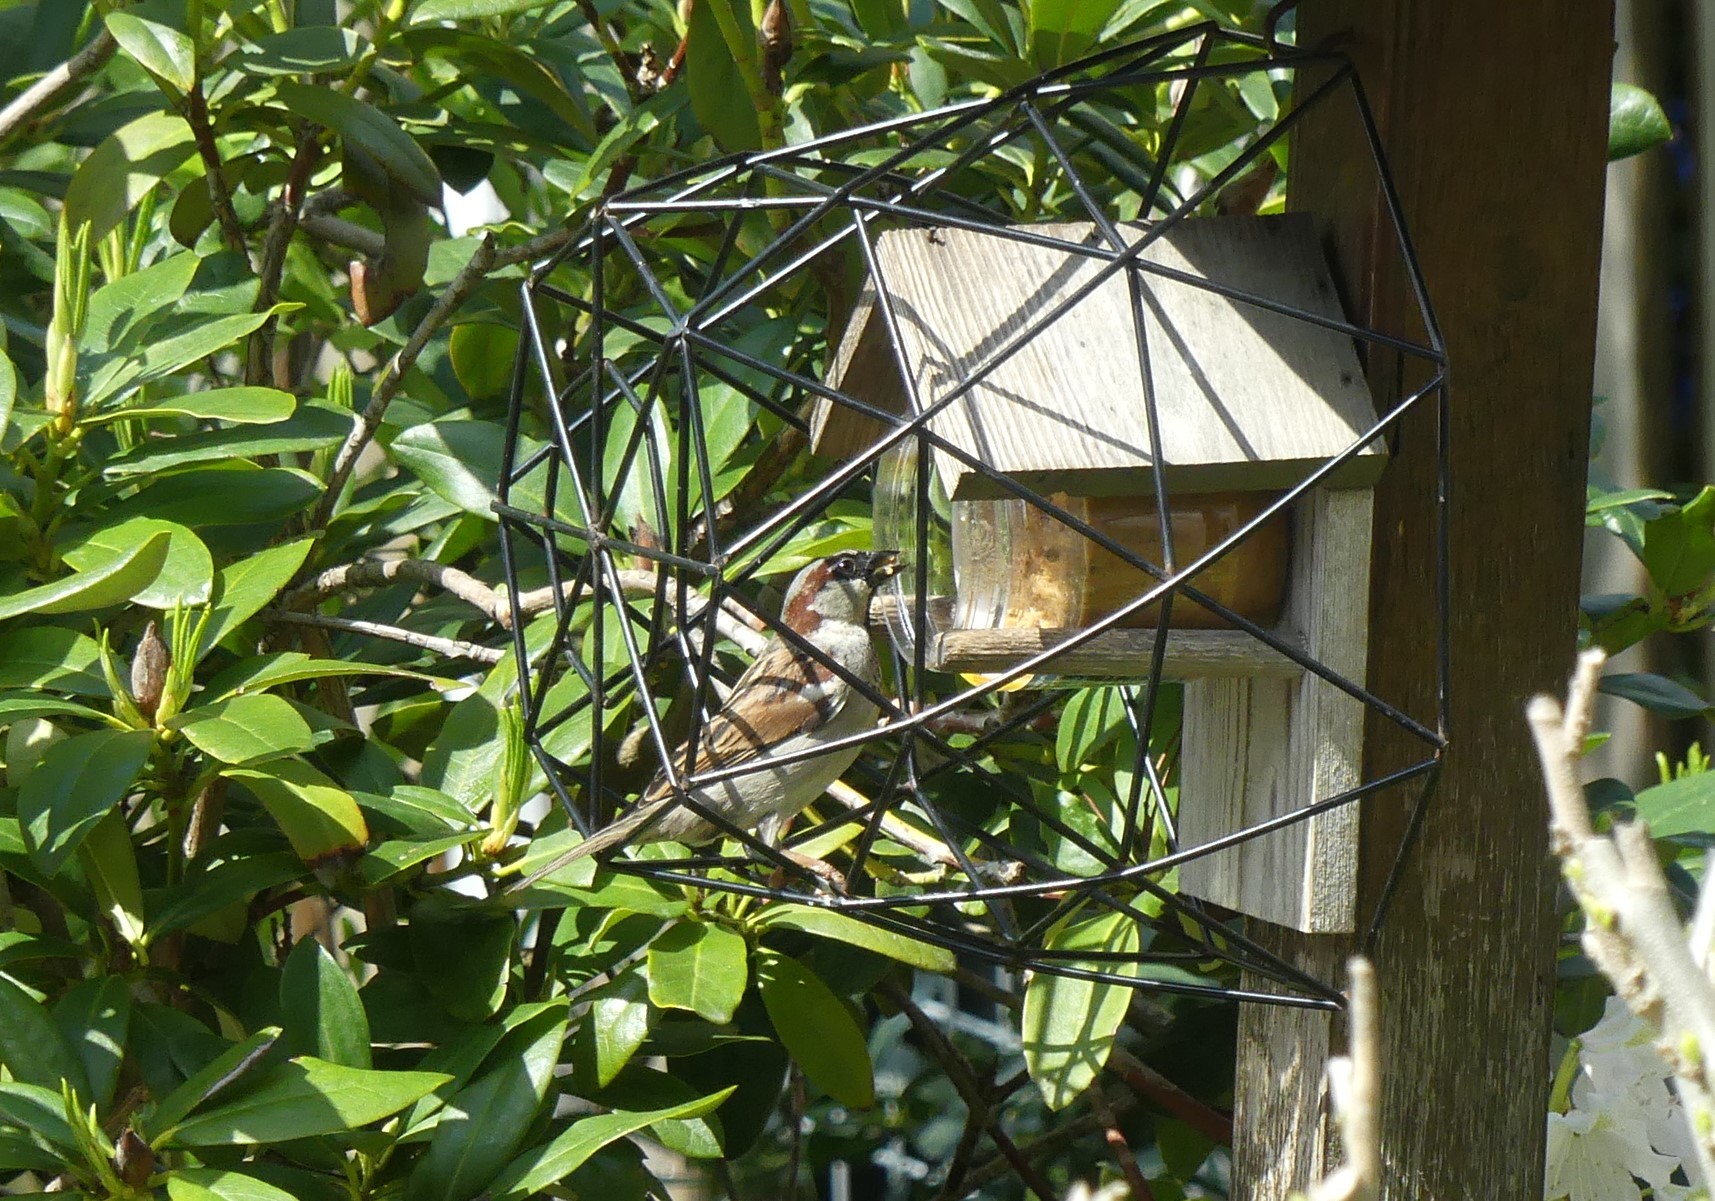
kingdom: Animalia
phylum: Chordata
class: Aves
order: Passeriformes
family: Passeridae
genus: Passer
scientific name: Passer domesticus
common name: House sparrow
